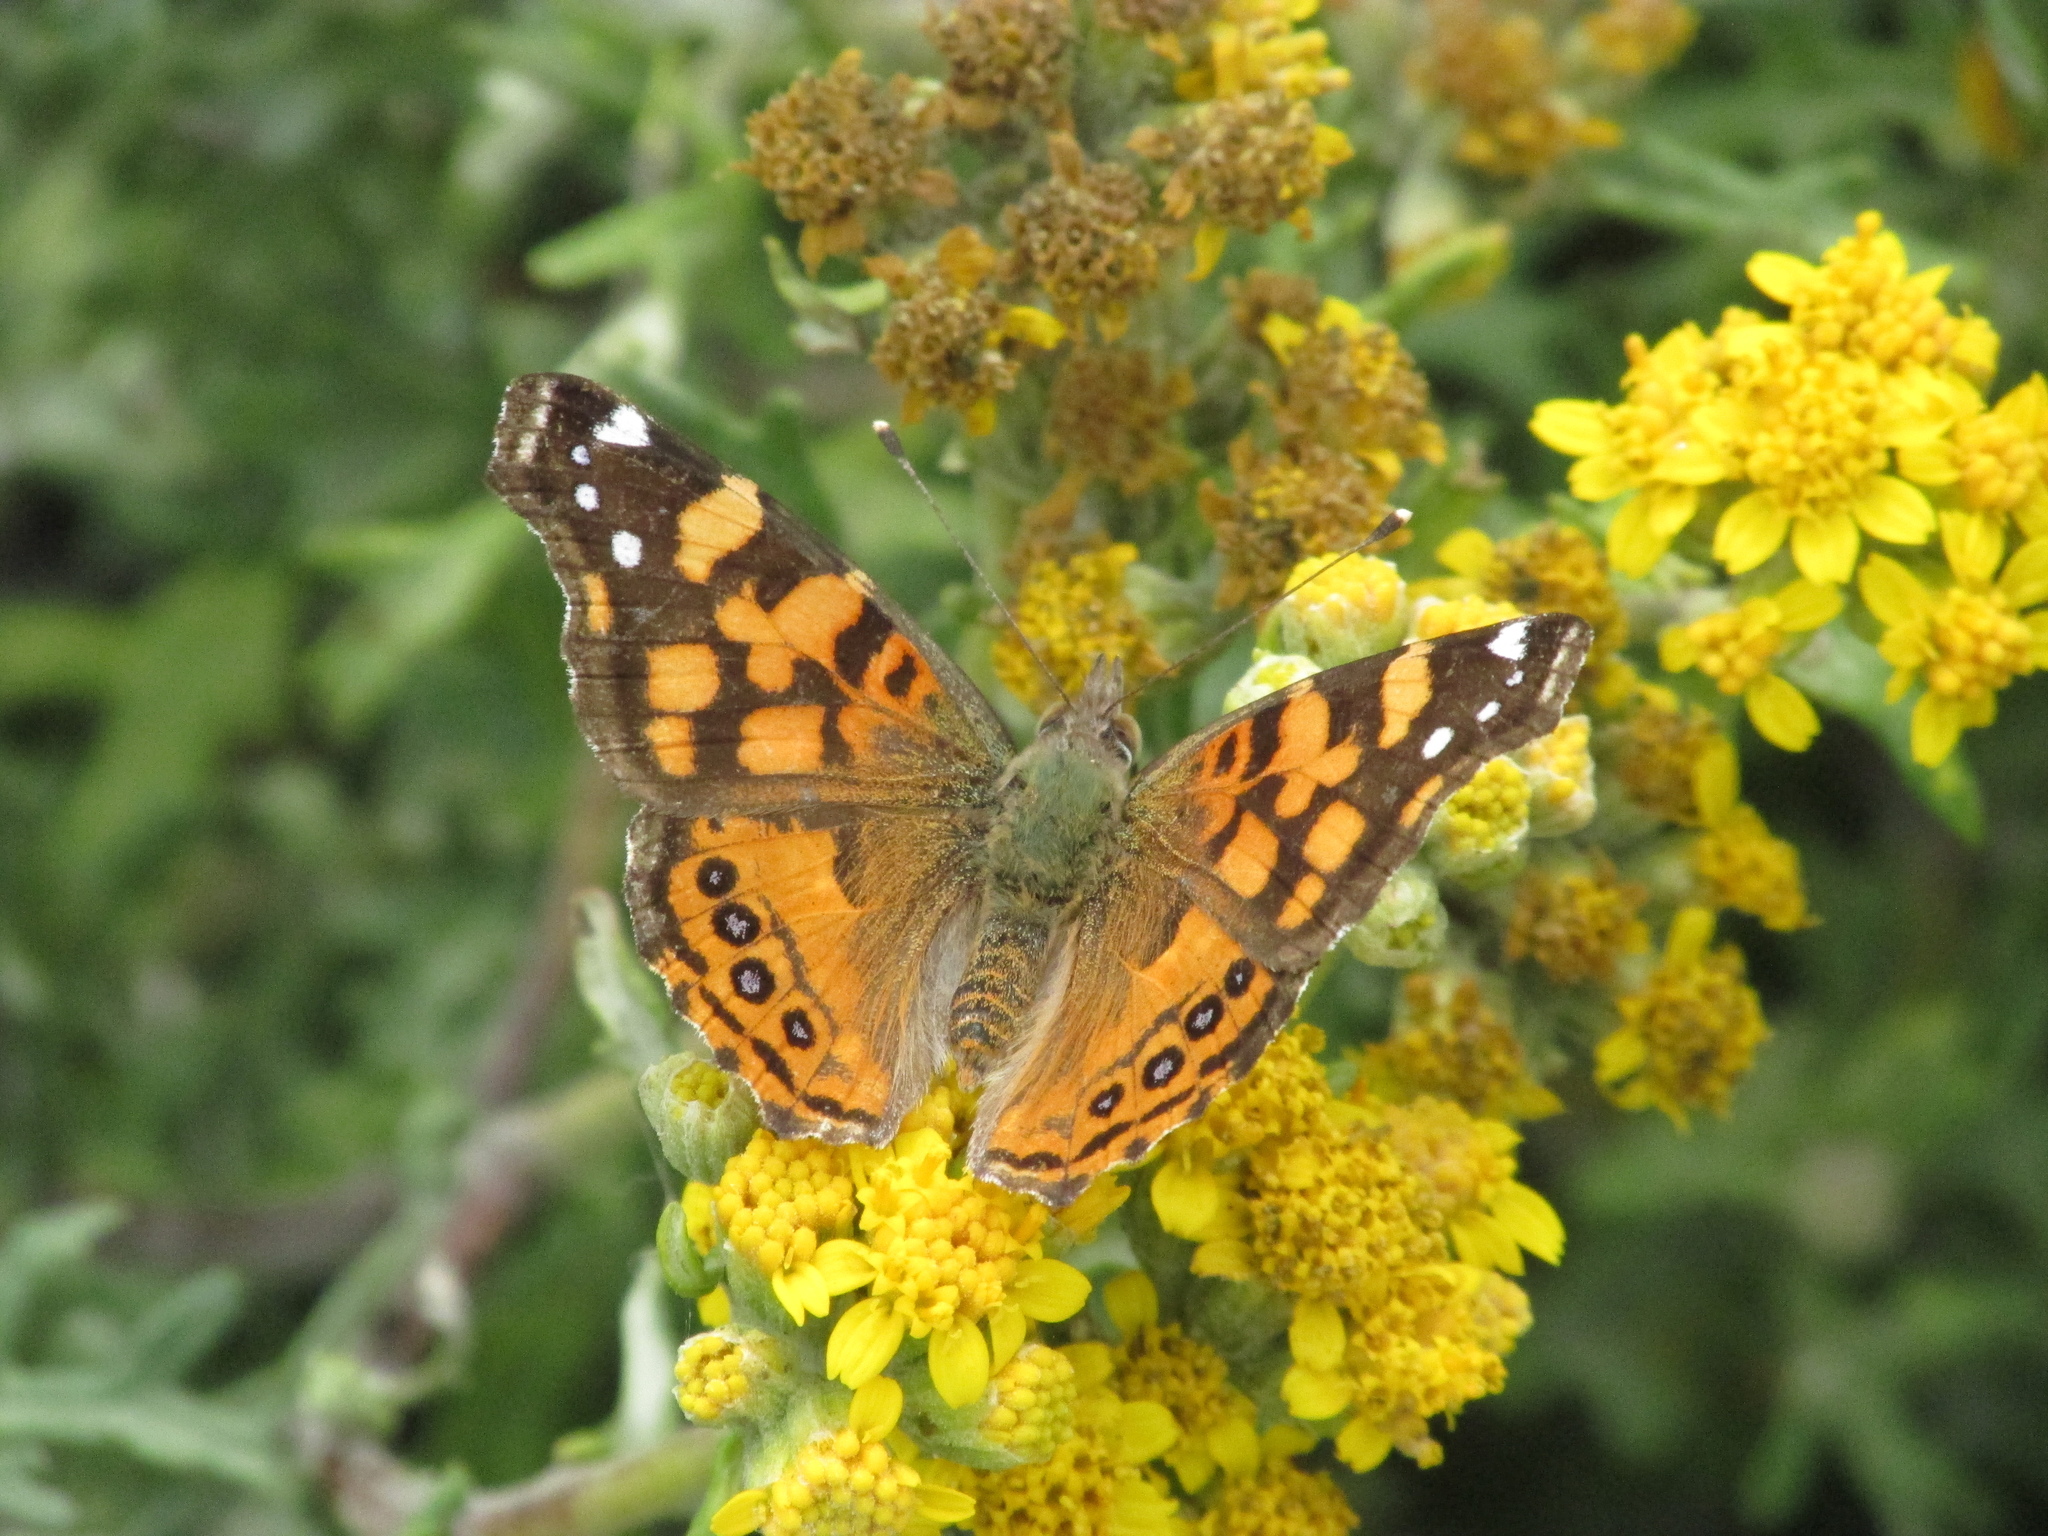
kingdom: Animalia
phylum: Arthropoda
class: Insecta
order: Lepidoptera
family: Nymphalidae
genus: Vanessa
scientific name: Vanessa annabella
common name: West coast lady
